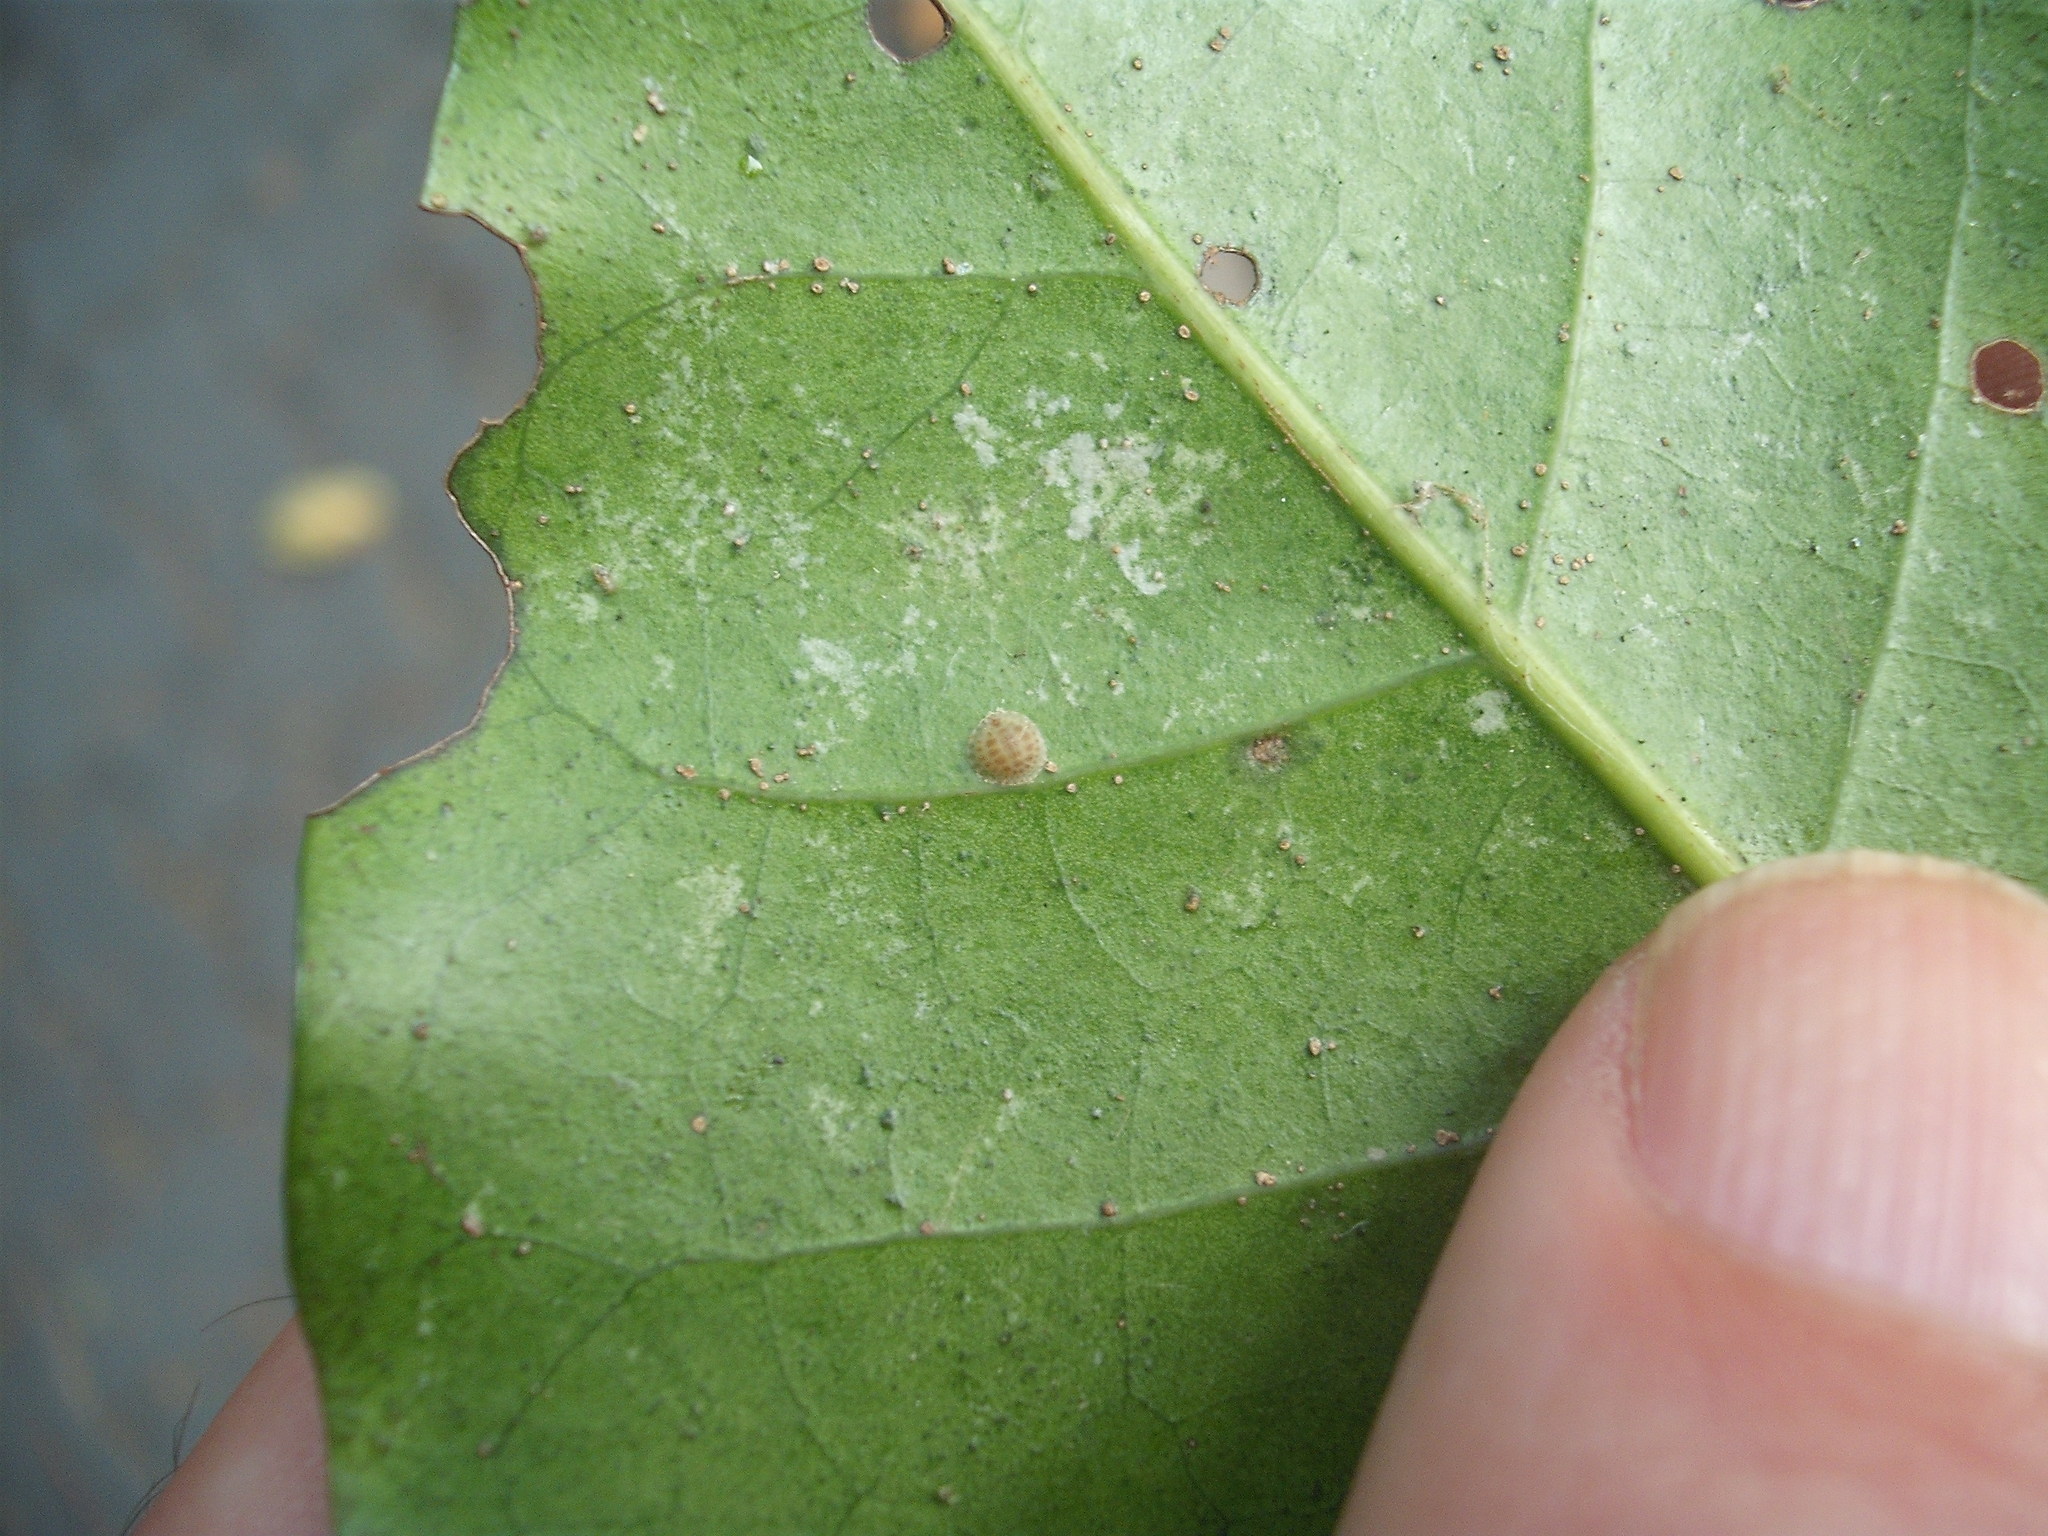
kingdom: Animalia
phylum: Arthropoda
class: Insecta
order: Hemiptera
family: Coccidae
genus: Epelidochiton
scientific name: Epelidochiton piperis
